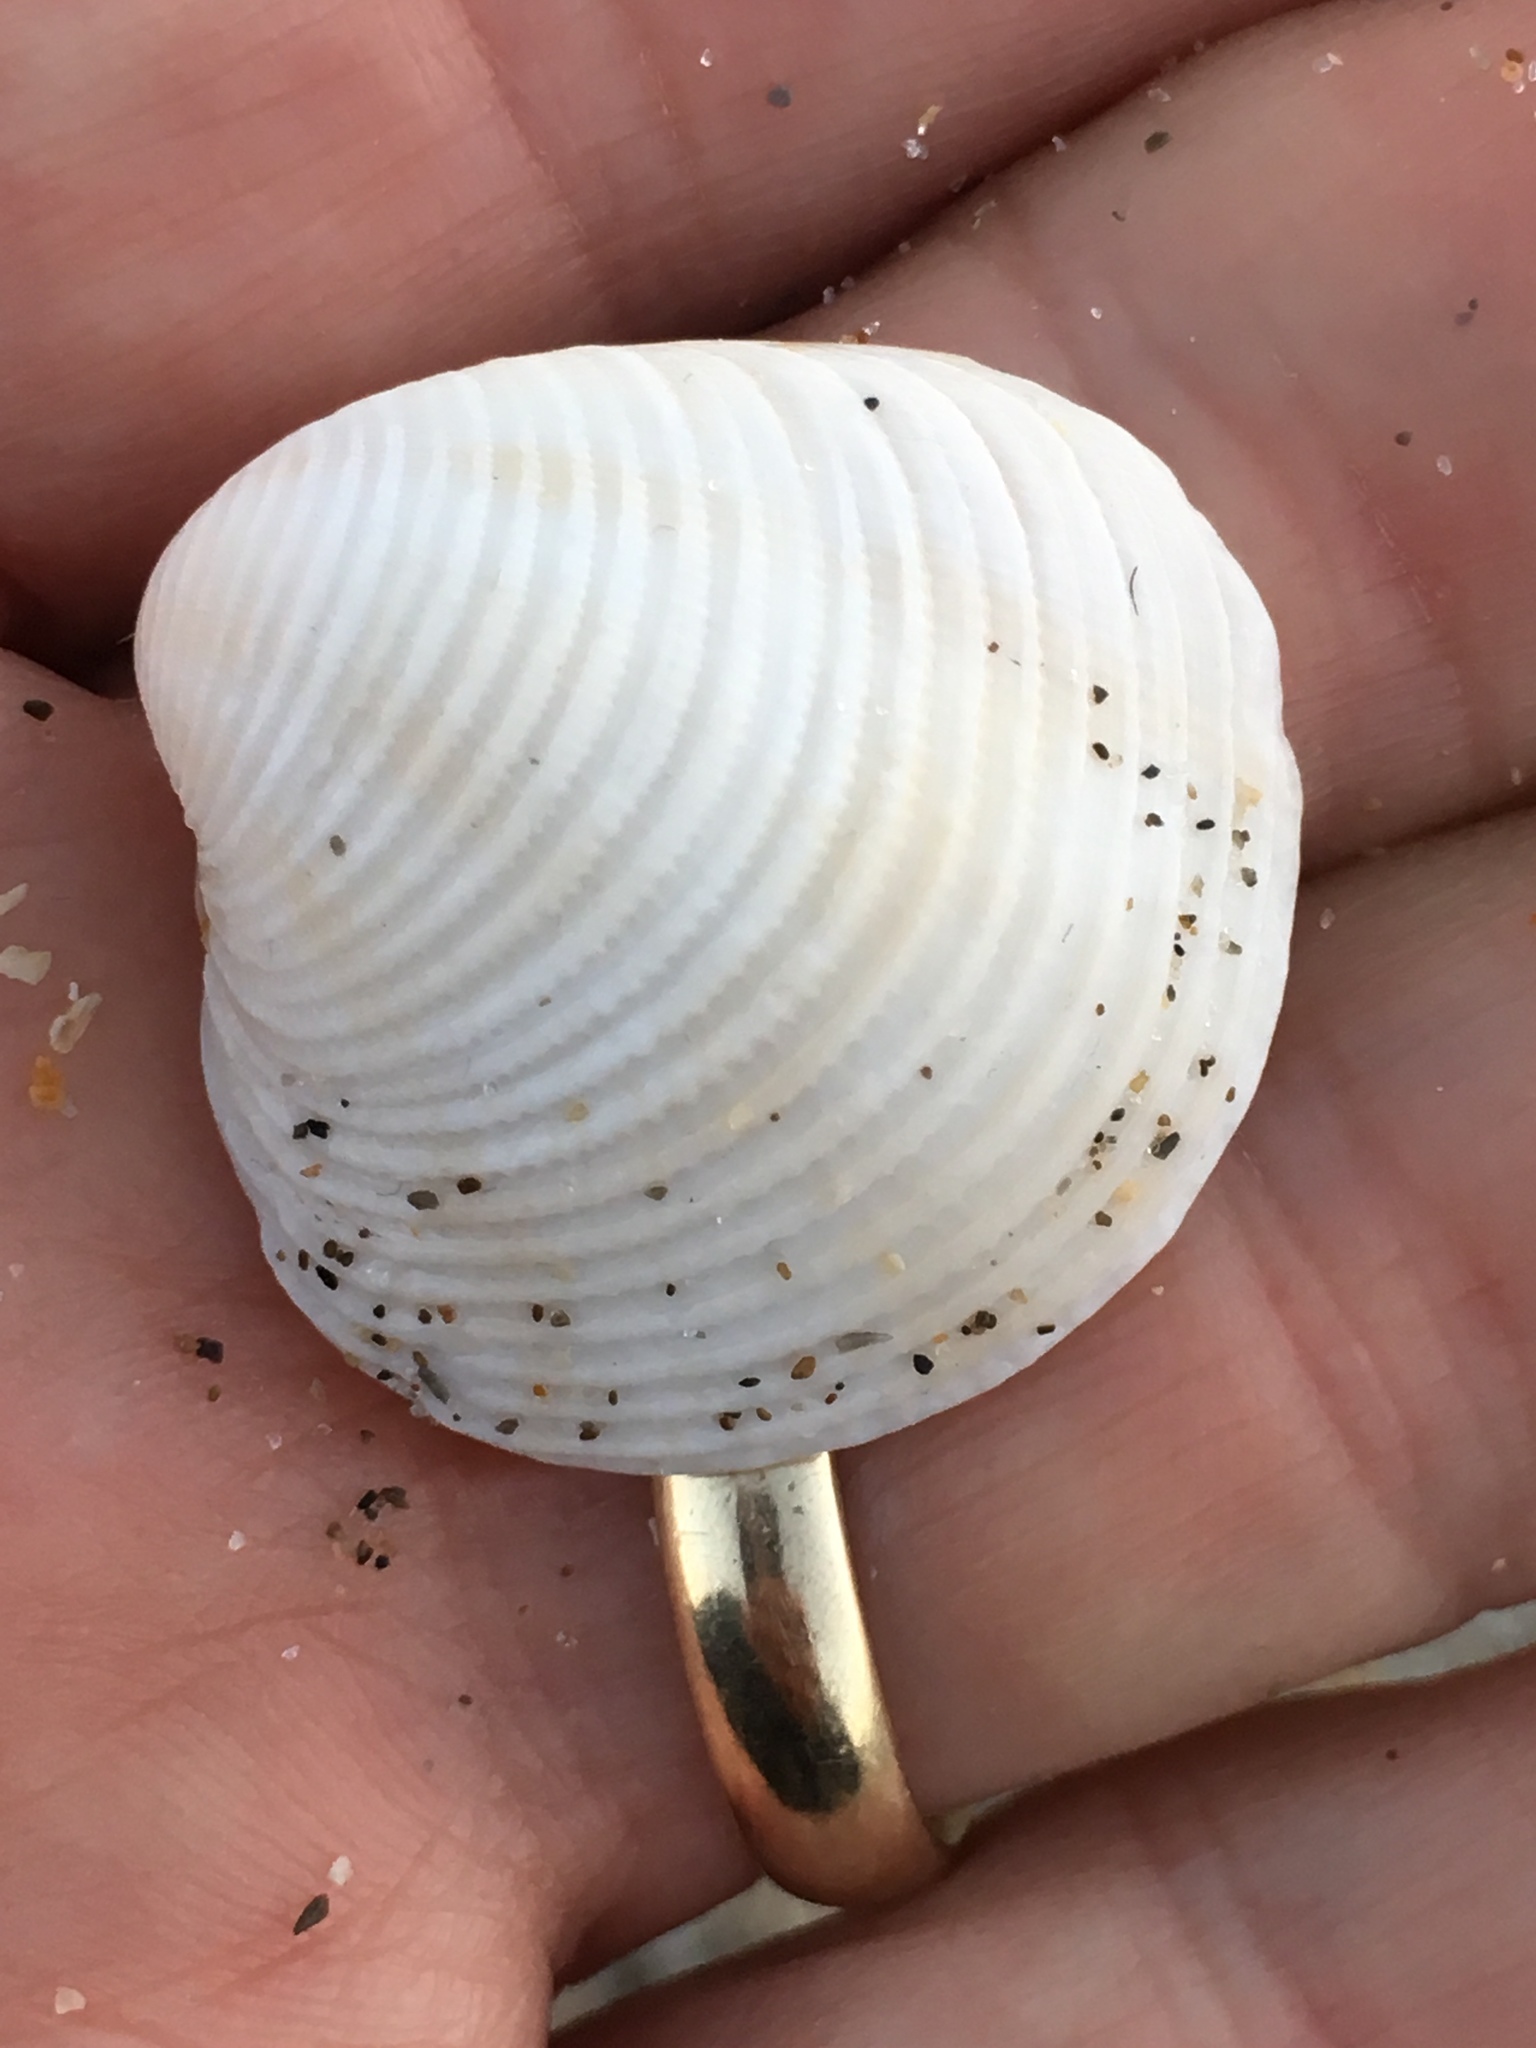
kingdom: Animalia
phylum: Mollusca
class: Bivalvia
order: Venerida
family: Veneridae
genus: Chionopsis
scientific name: Chionopsis intapurpurea
